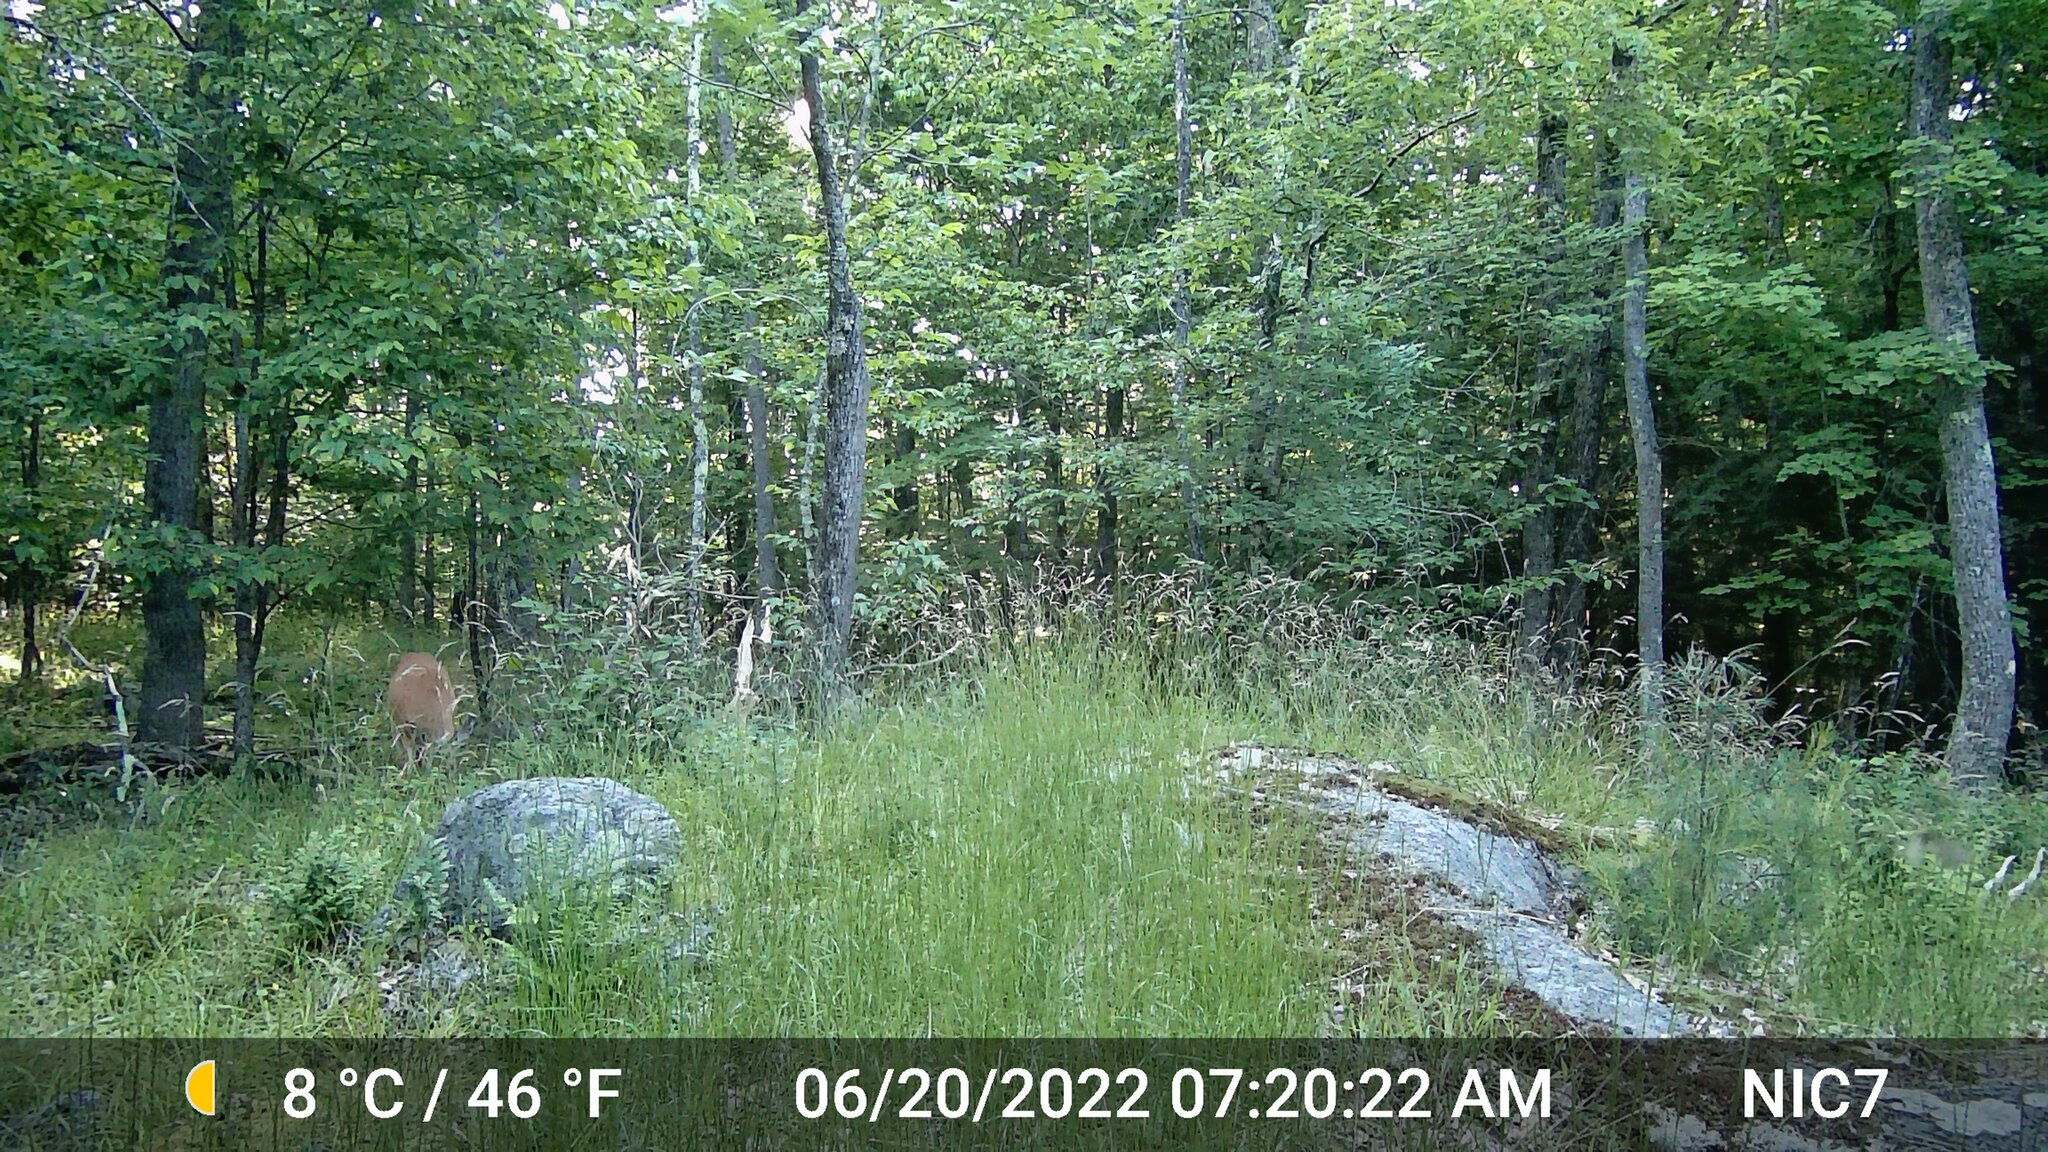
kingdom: Animalia
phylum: Chordata
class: Mammalia
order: Artiodactyla
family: Cervidae
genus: Odocoileus
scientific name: Odocoileus virginianus
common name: White-tailed deer
